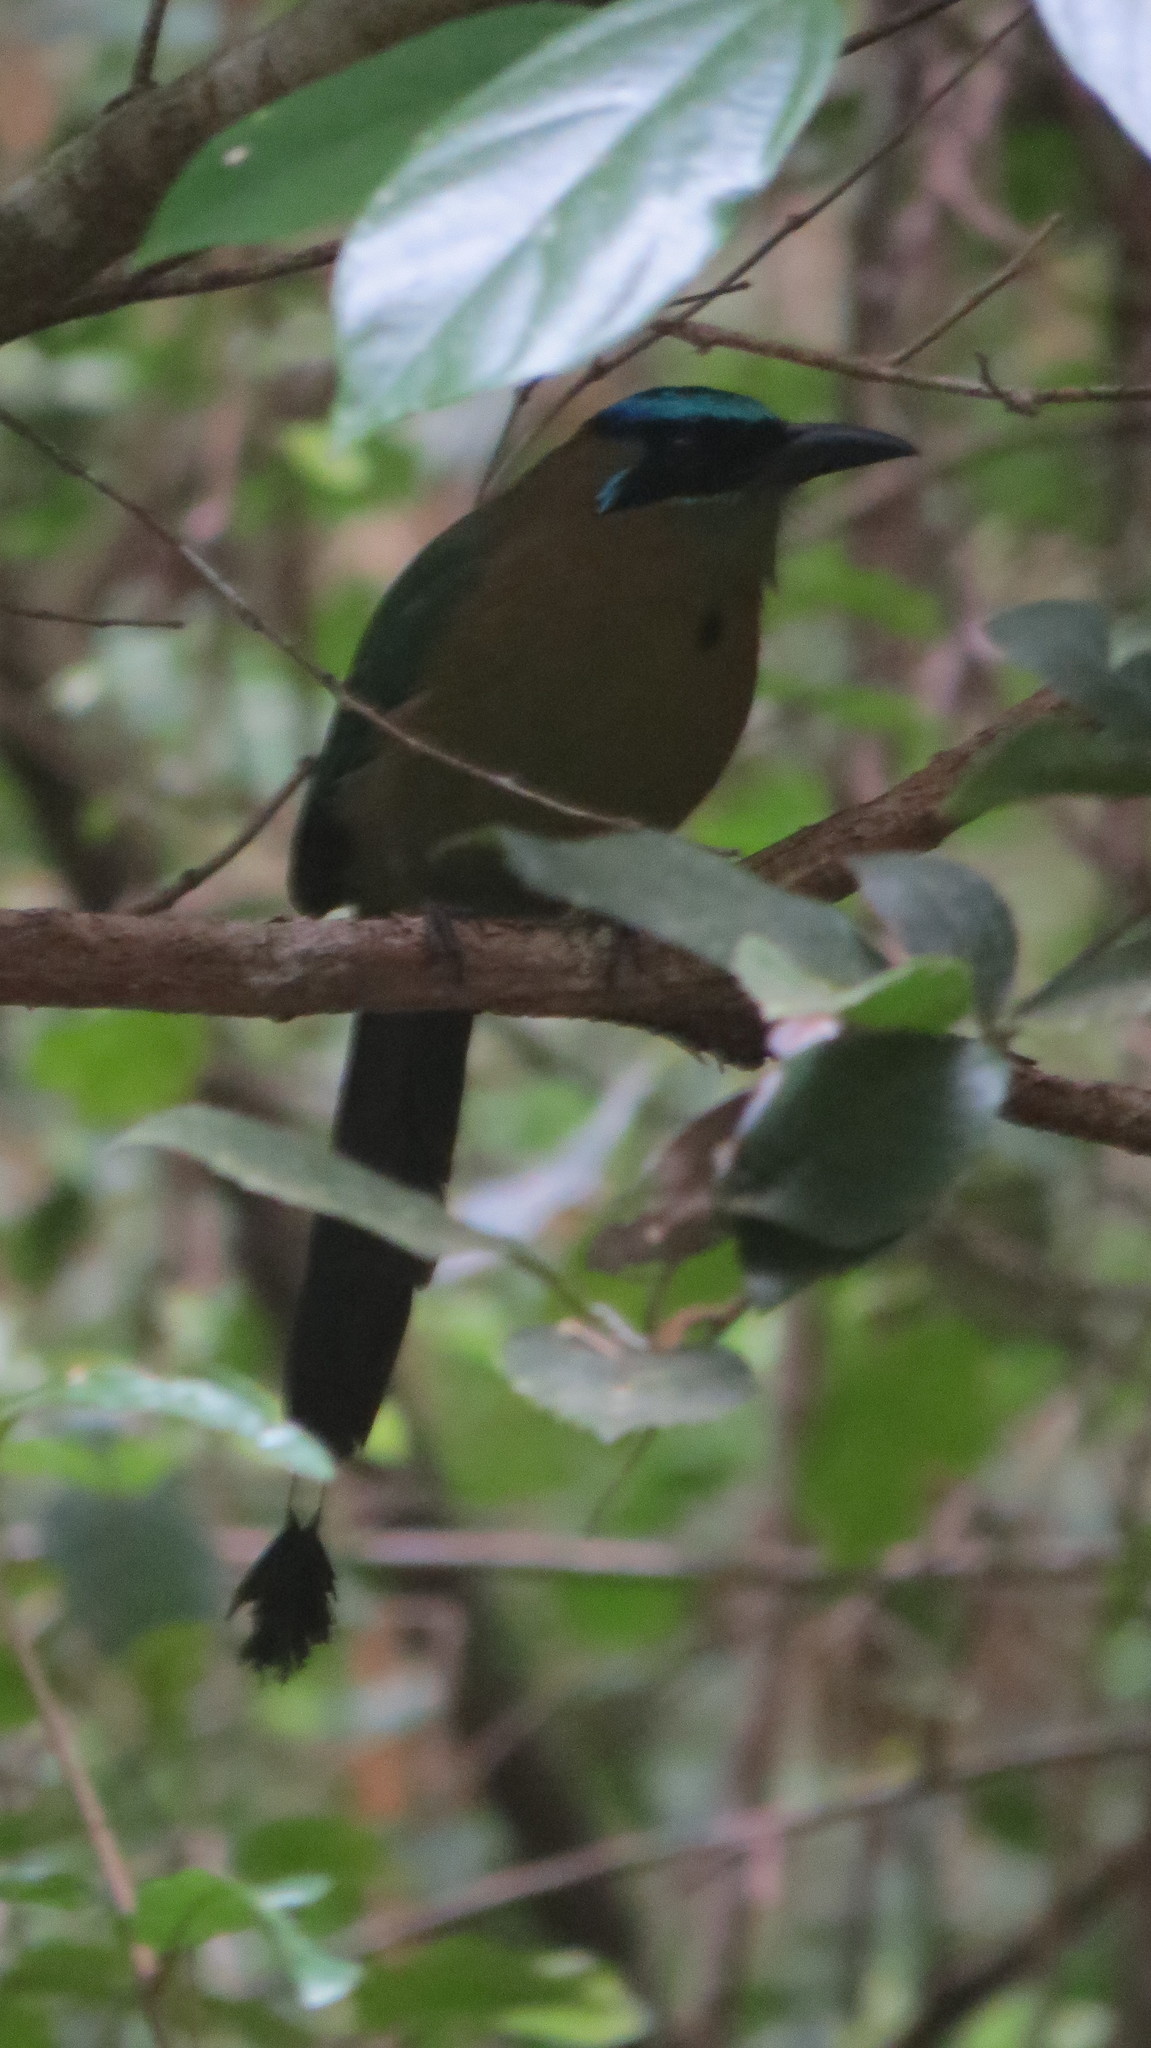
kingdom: Animalia
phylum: Chordata
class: Aves
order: Coraciiformes
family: Momotidae
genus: Momotus
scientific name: Momotus lessonii
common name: Lesson's motmot
